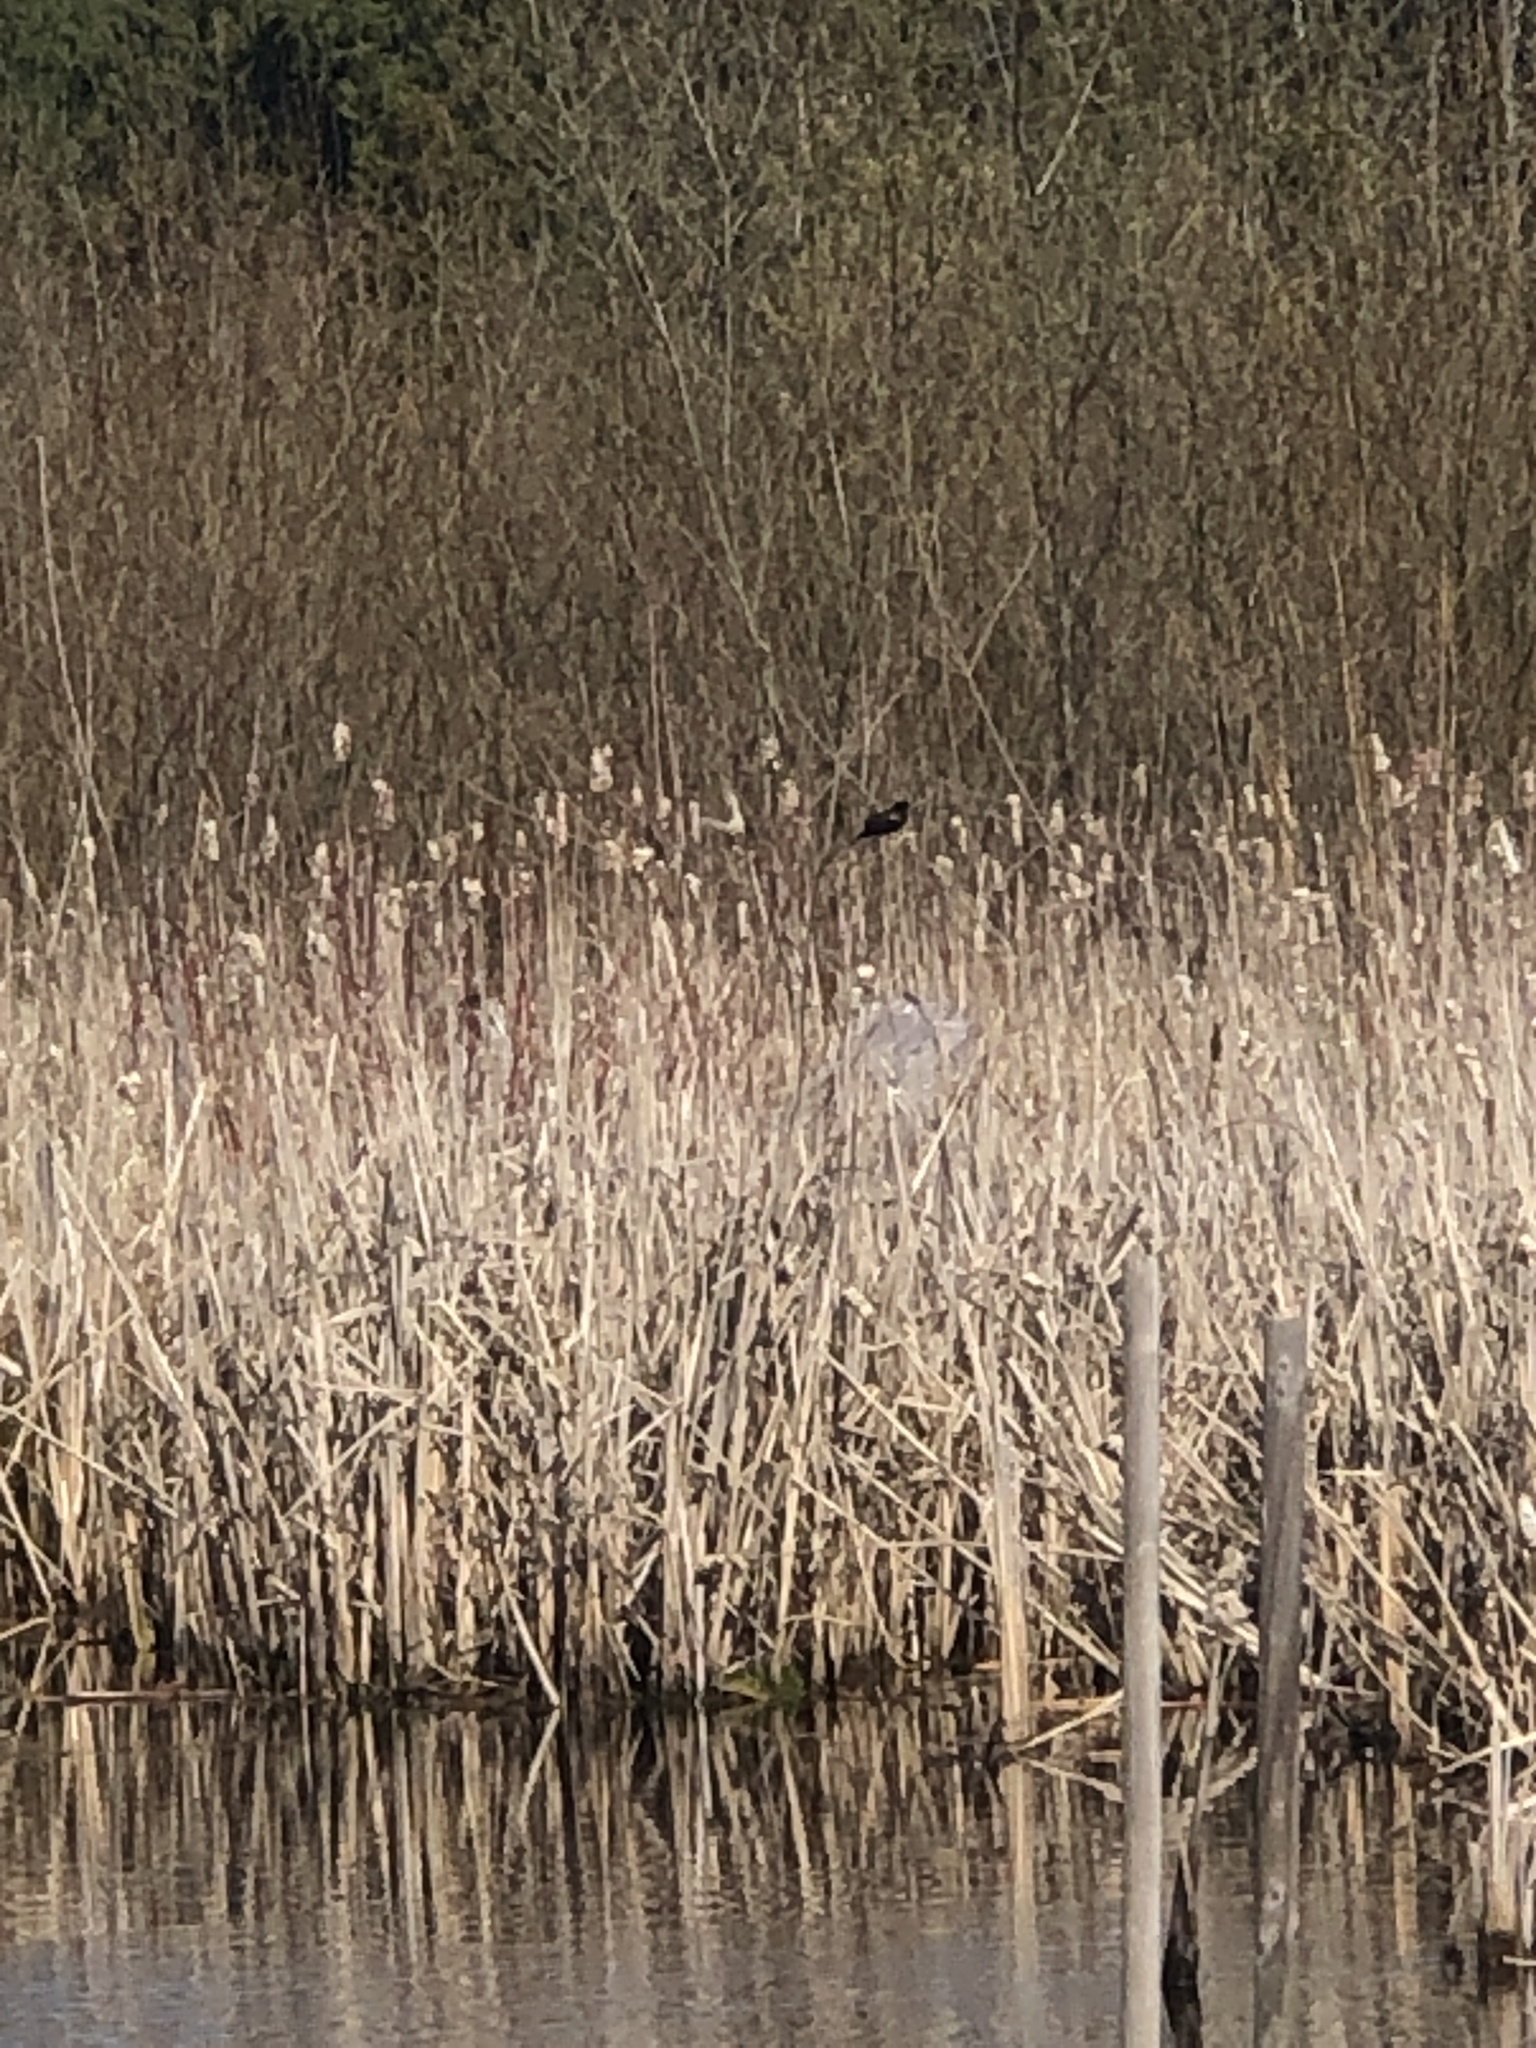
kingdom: Animalia
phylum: Chordata
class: Aves
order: Passeriformes
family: Icteridae
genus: Agelaius
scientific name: Agelaius phoeniceus
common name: Red-winged blackbird
